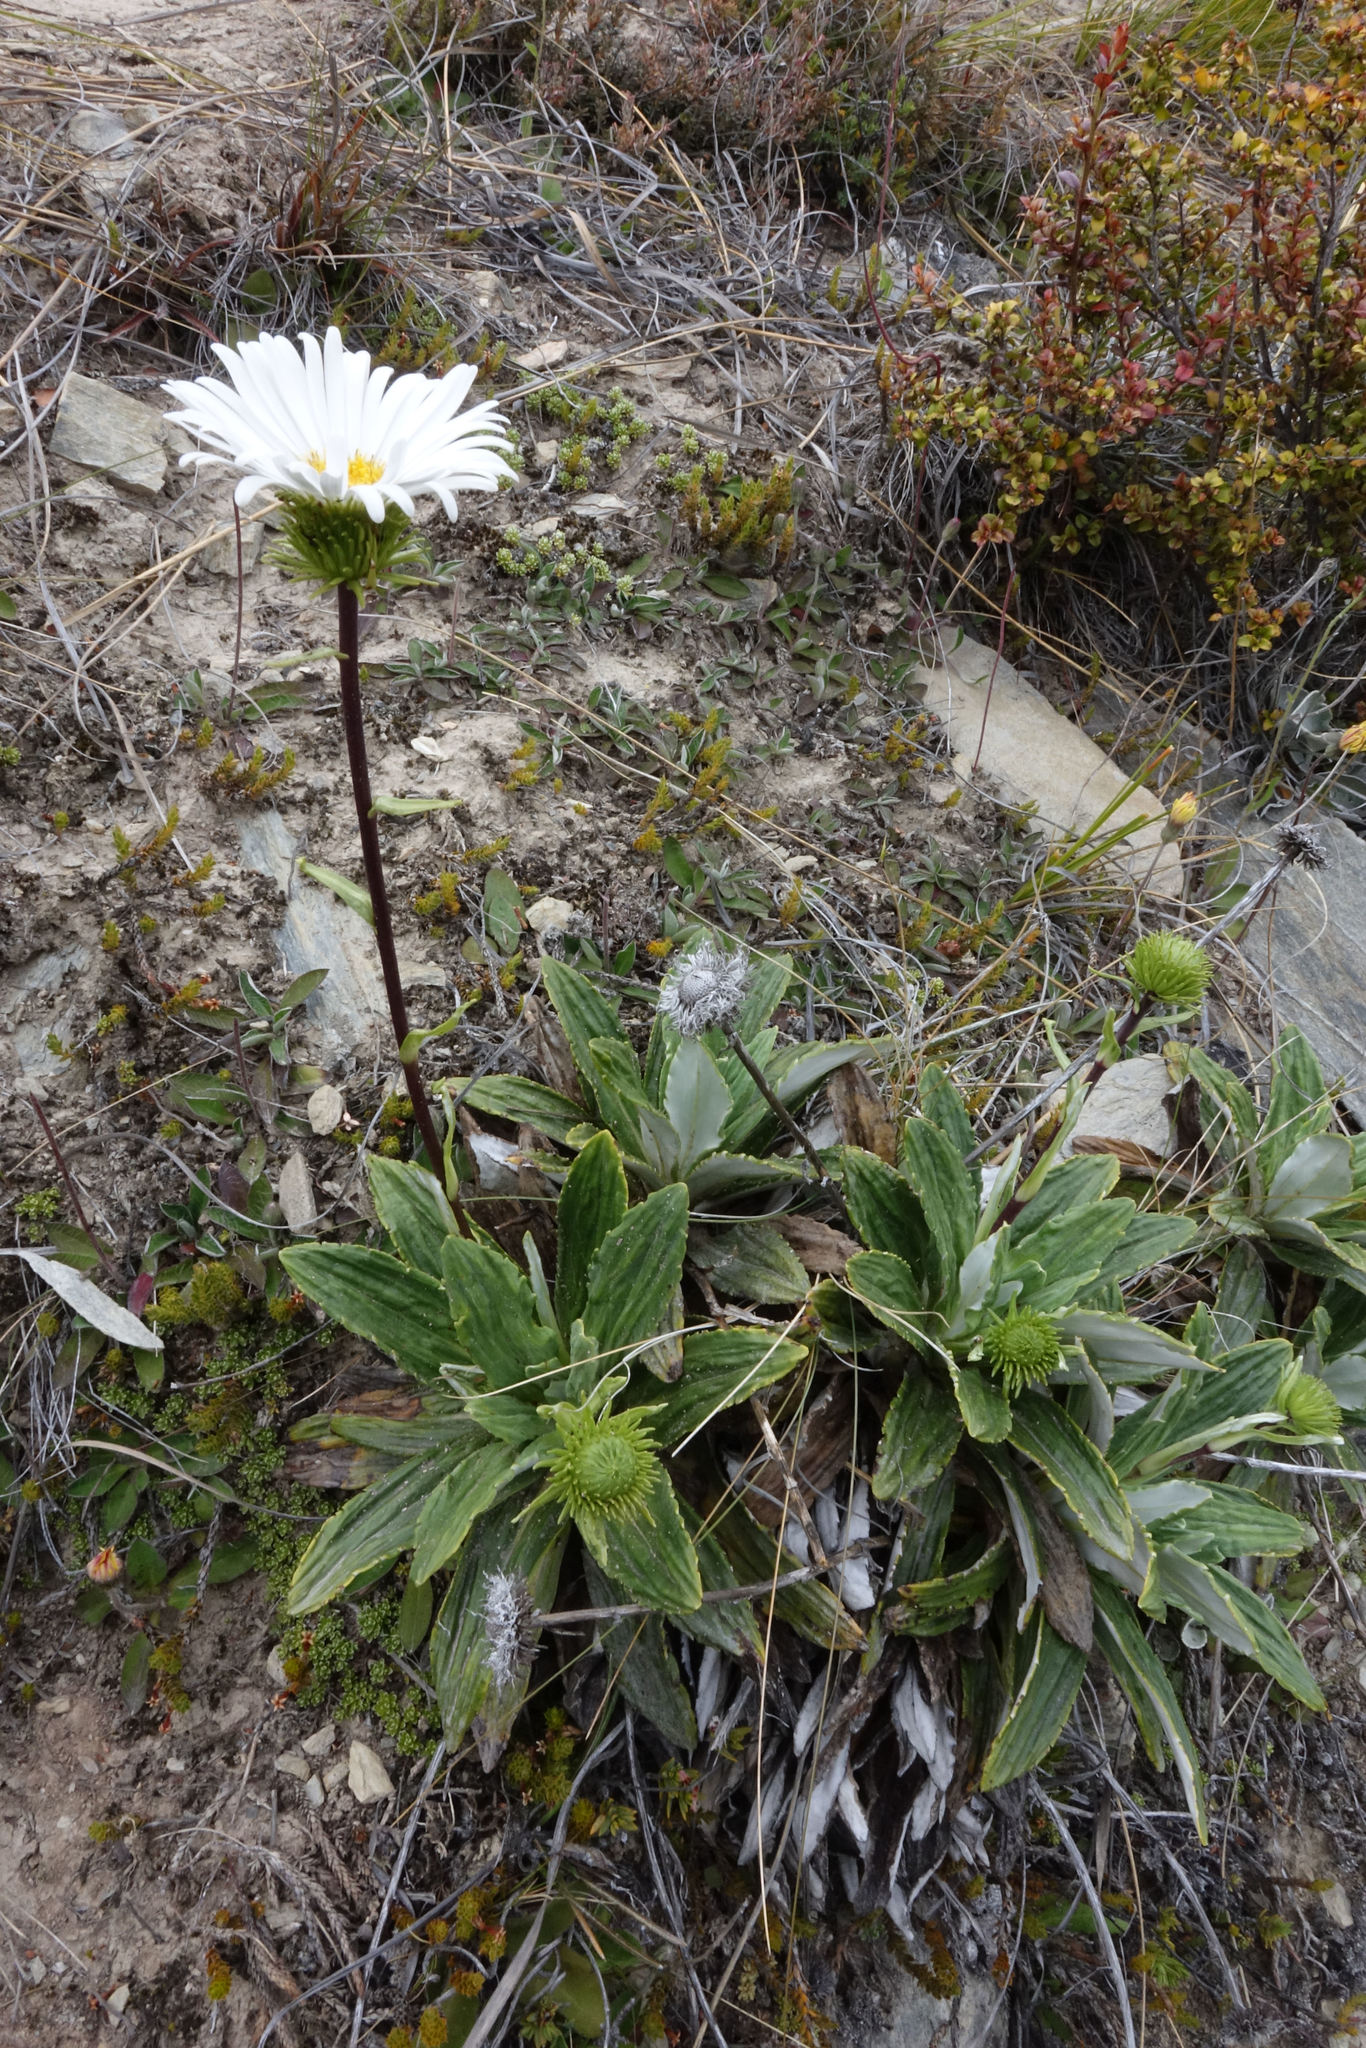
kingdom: Plantae
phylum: Tracheophyta
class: Magnoliopsida
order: Asterales
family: Asteraceae
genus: Celmisia
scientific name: Celmisia densiflora
